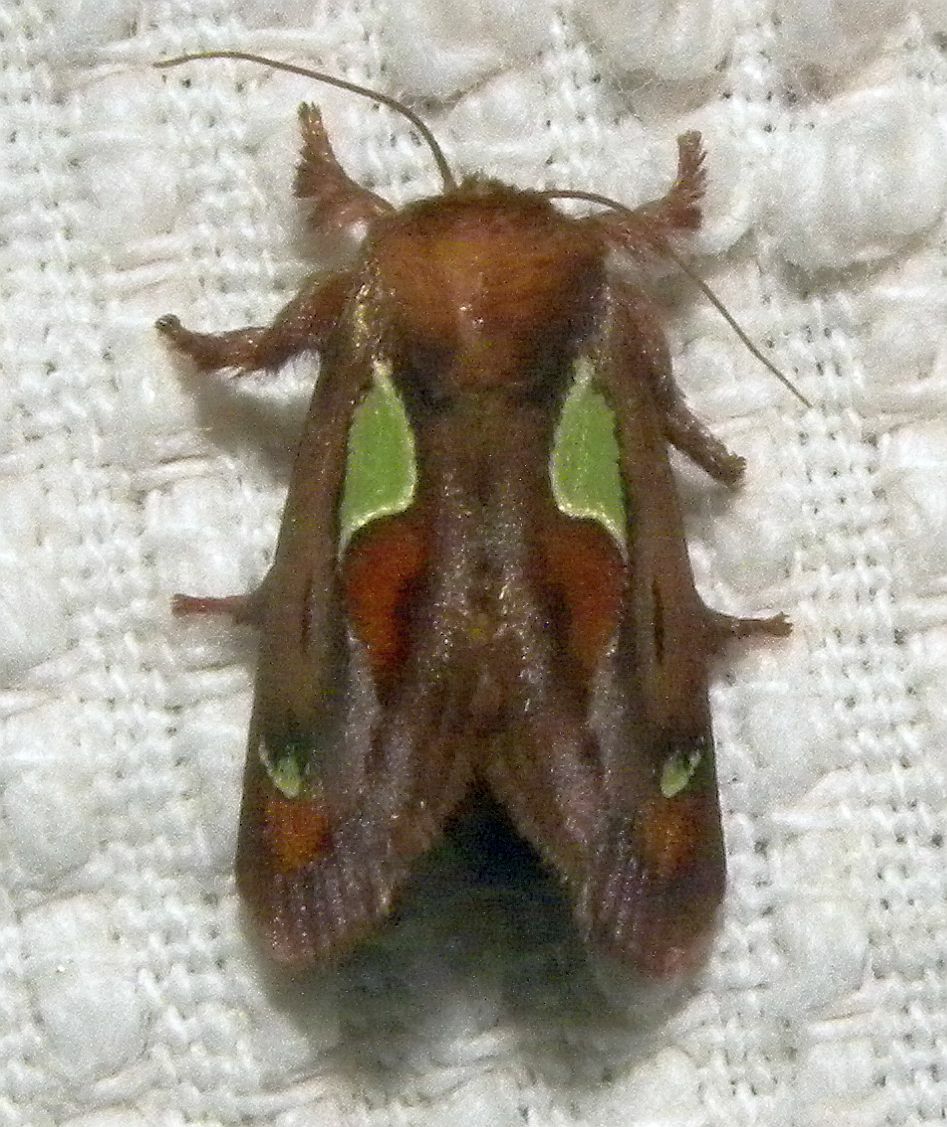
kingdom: Animalia
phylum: Arthropoda
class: Insecta
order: Lepidoptera
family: Limacodidae
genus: Euclea
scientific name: Euclea delphinii
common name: Spiny oak-slug moth
